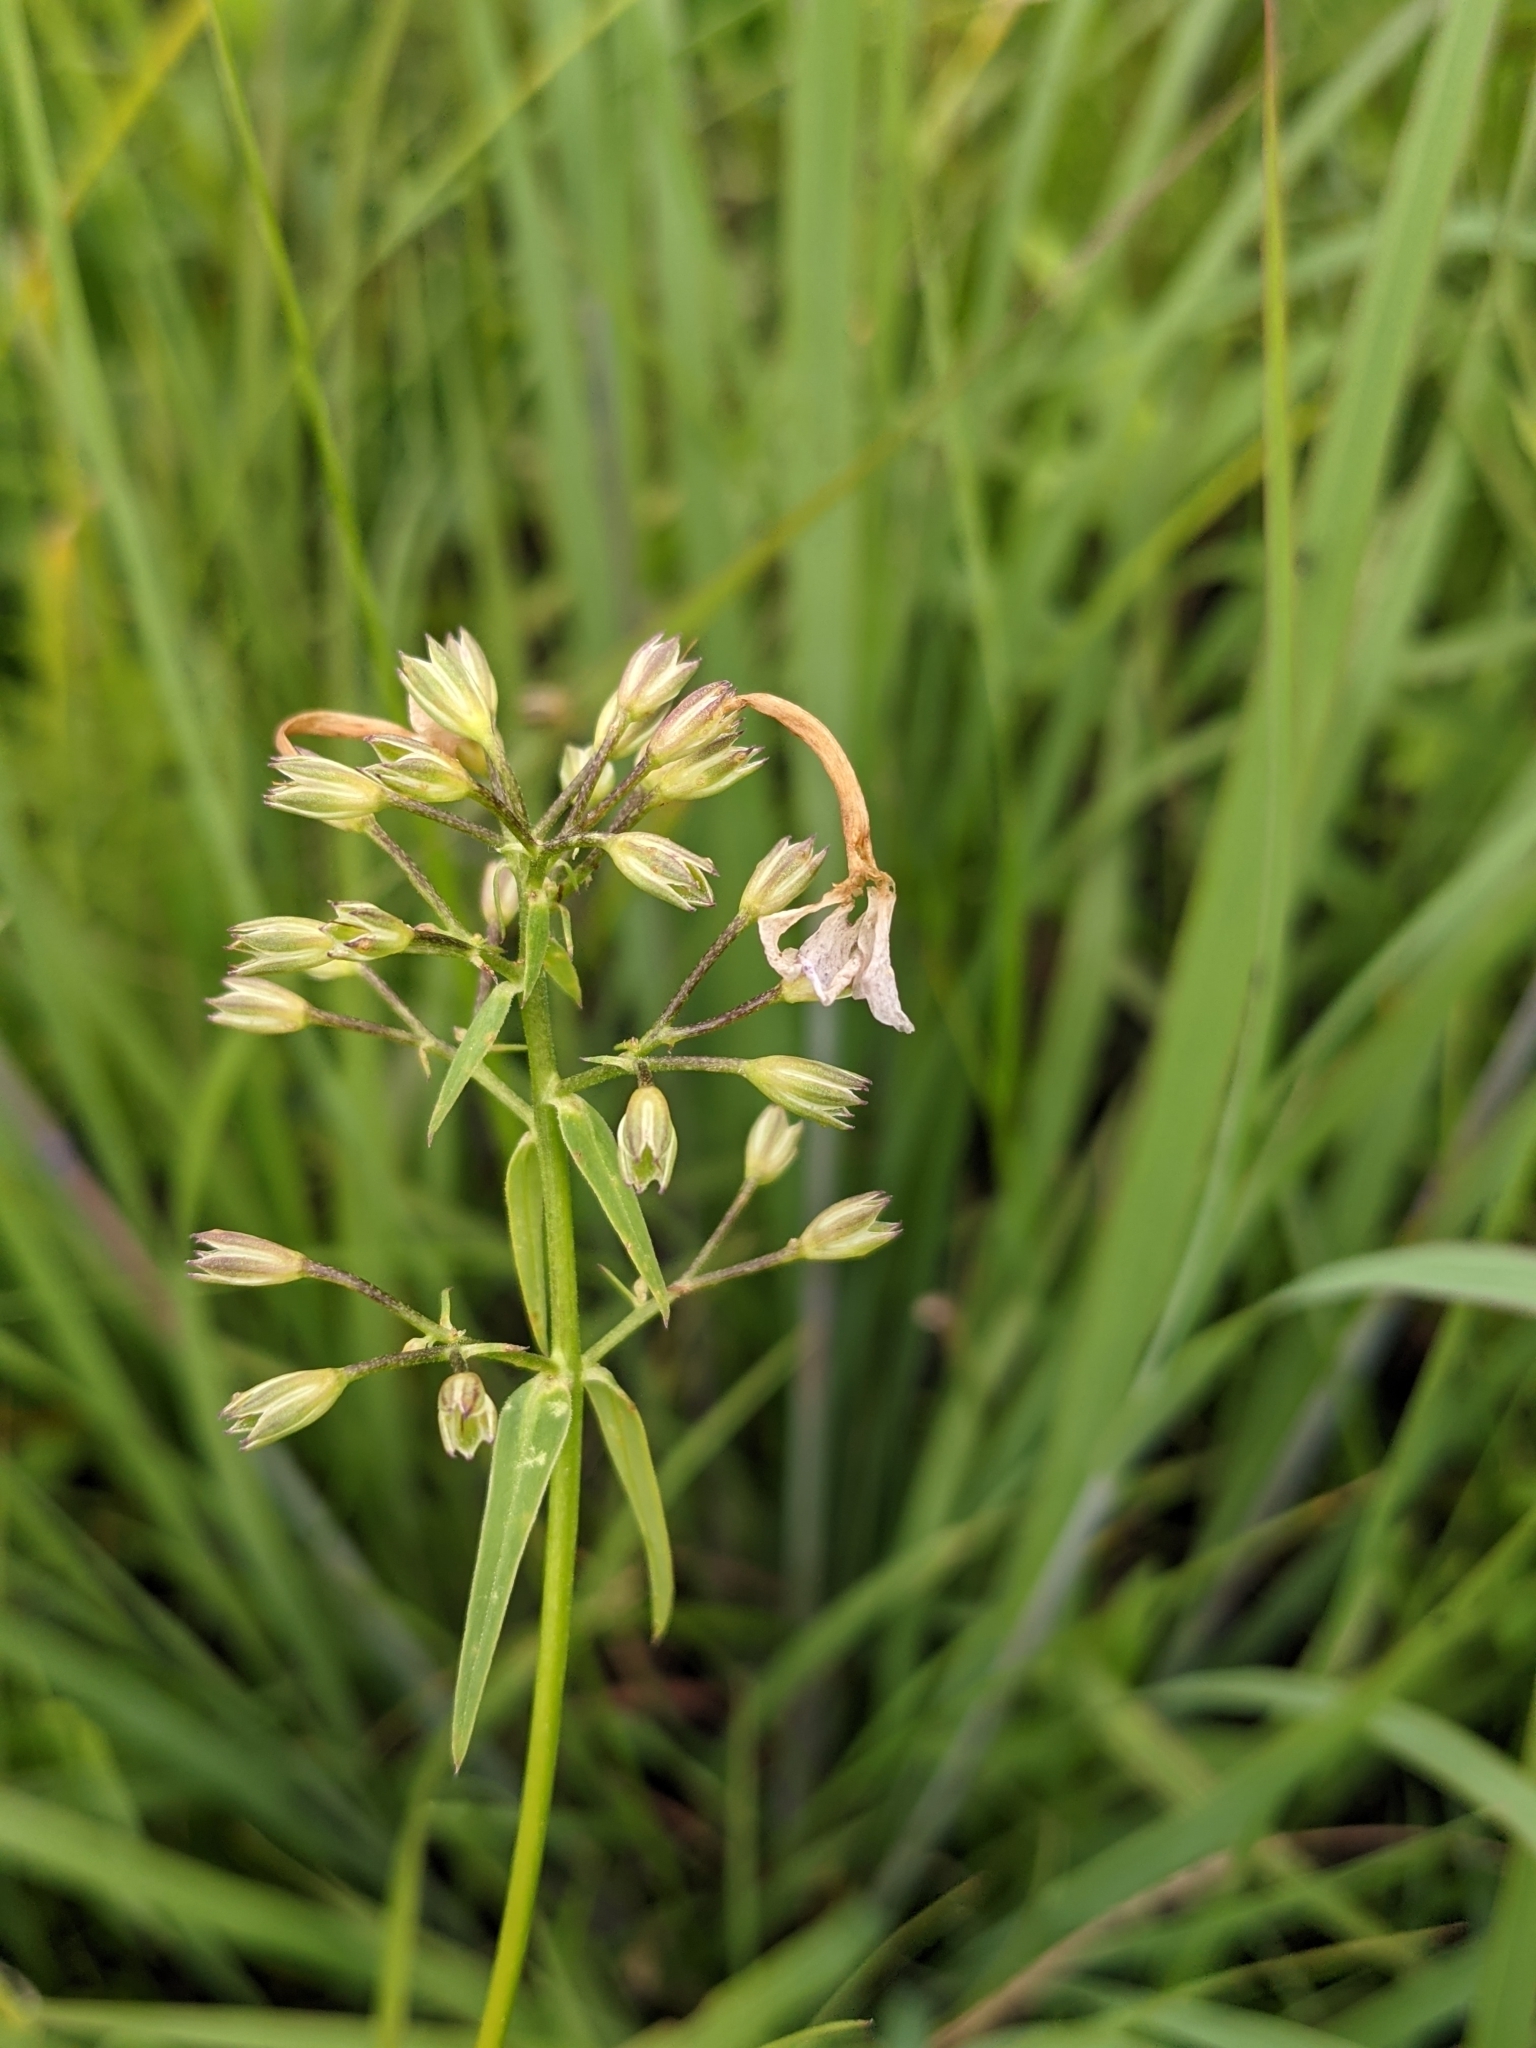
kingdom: Plantae
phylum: Tracheophyta
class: Magnoliopsida
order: Ericales
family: Polemoniaceae
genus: Phlox
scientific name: Phlox glaberrima
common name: Smooth phlox
